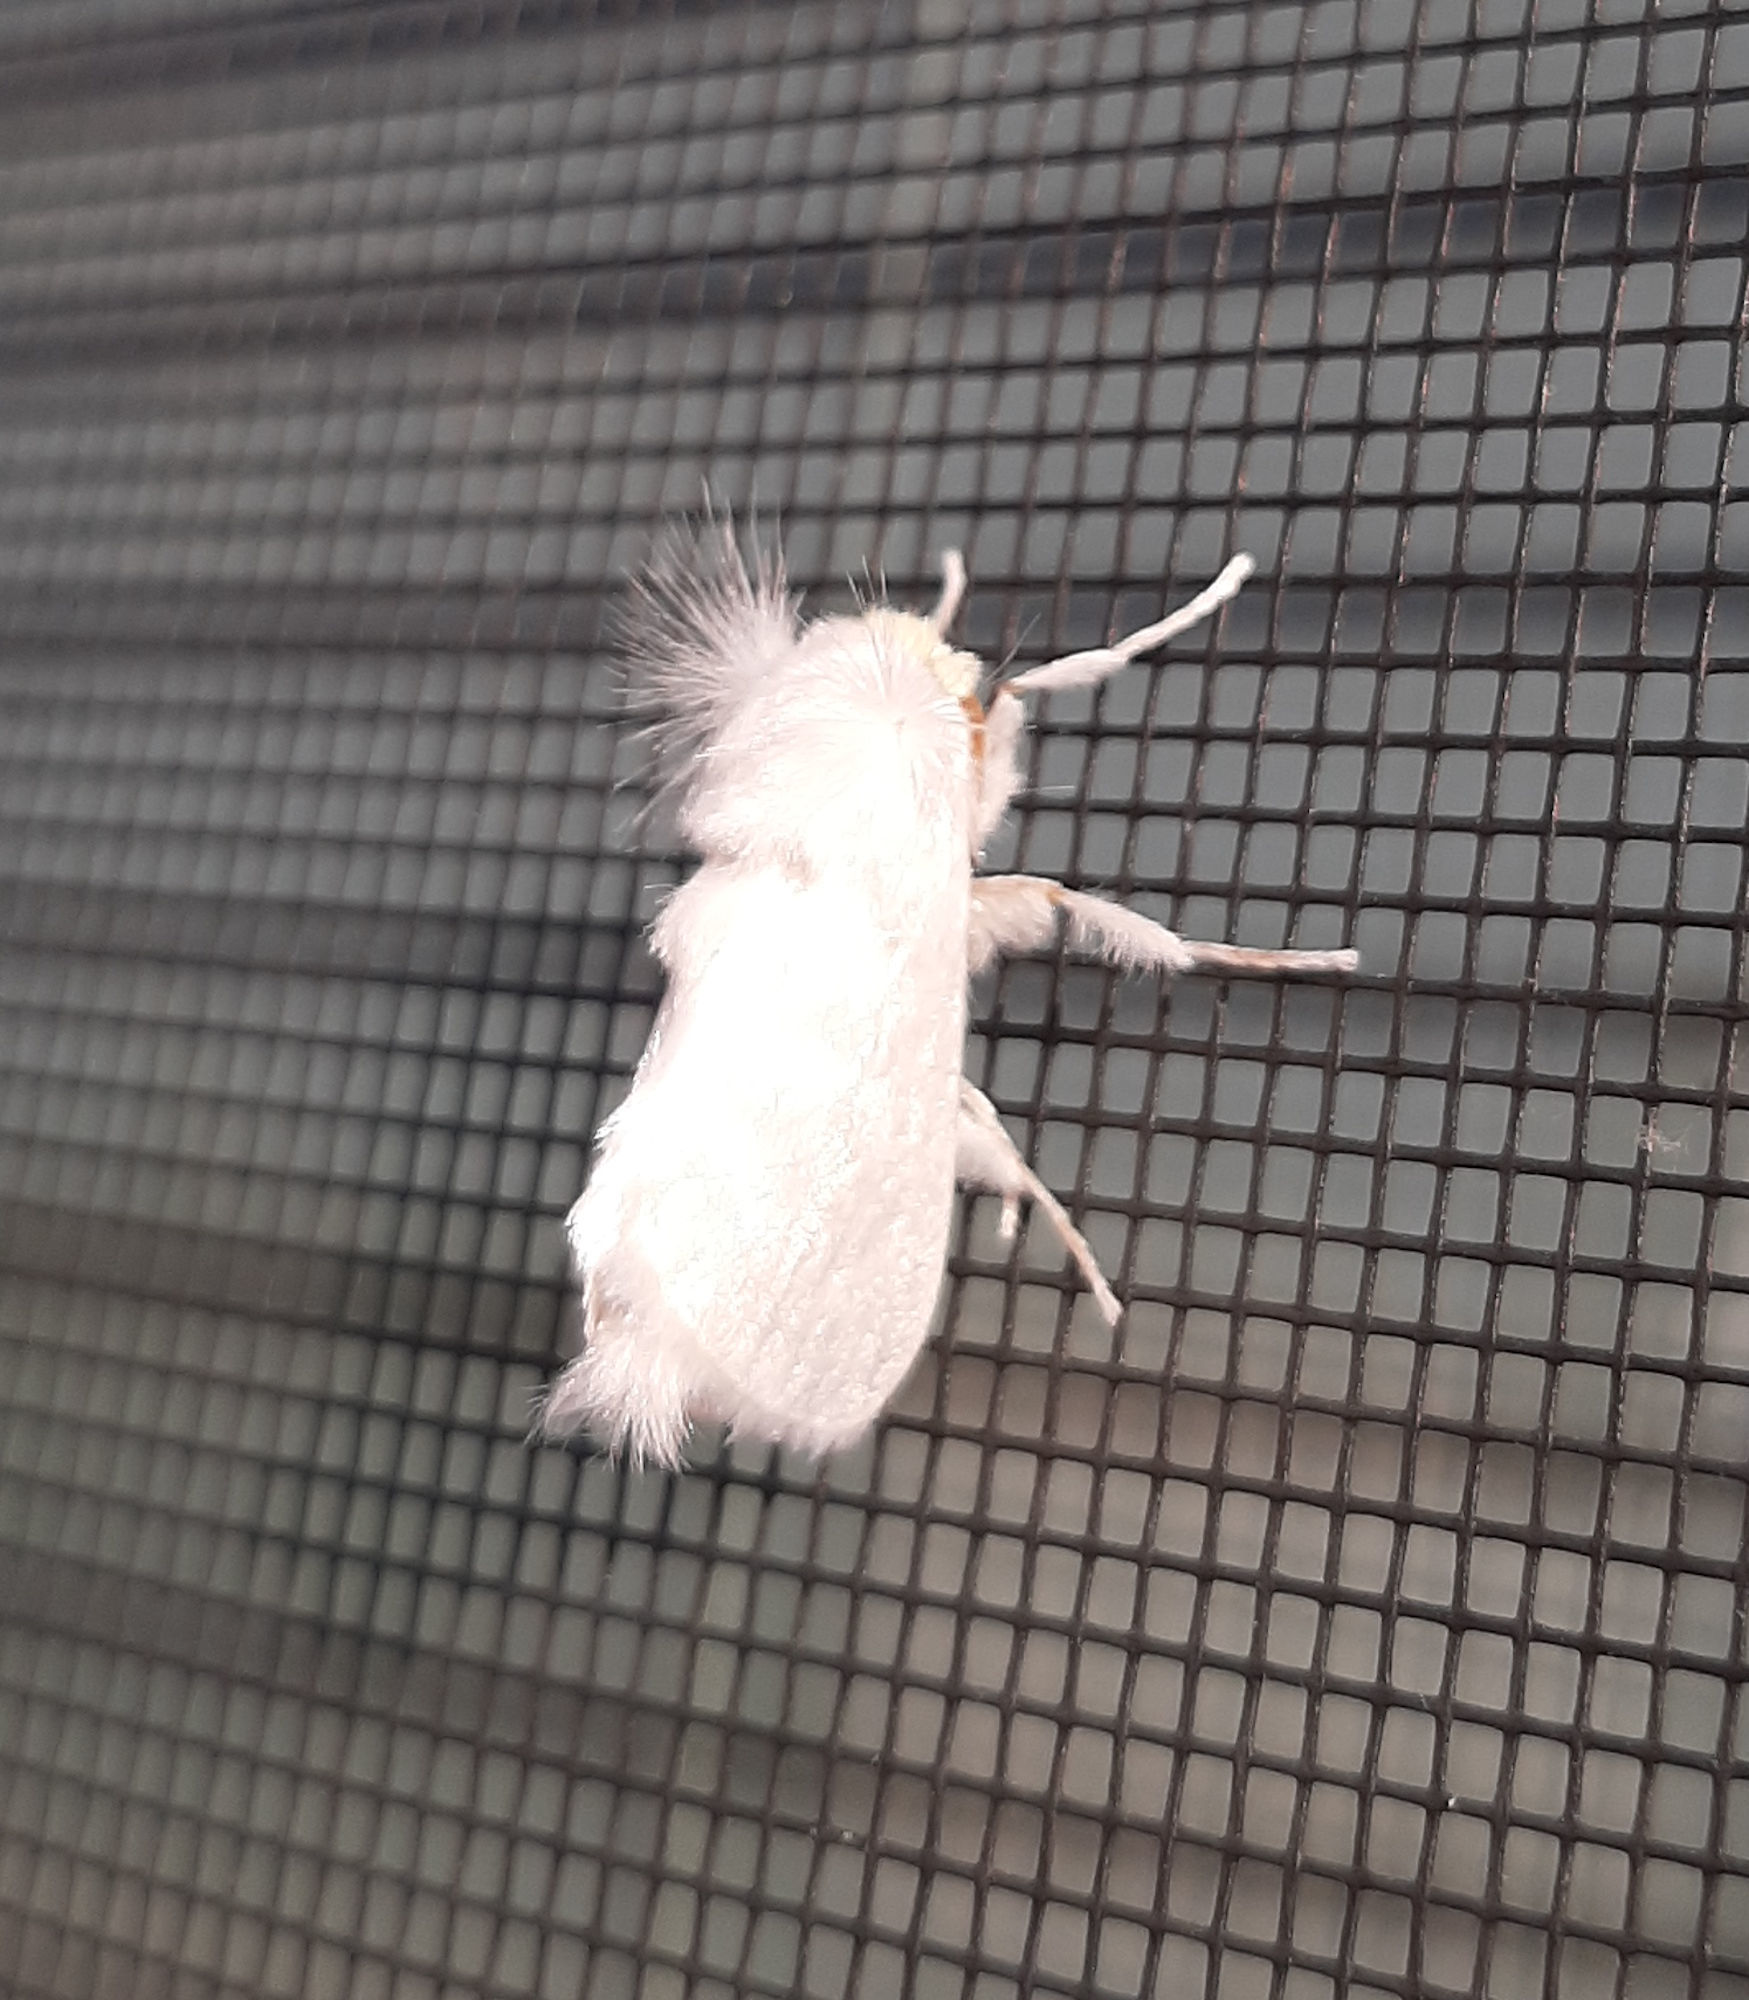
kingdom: Animalia
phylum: Arthropoda
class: Insecta
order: Lepidoptera
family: Megalopygidae
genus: Norape
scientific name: Norape cretata
